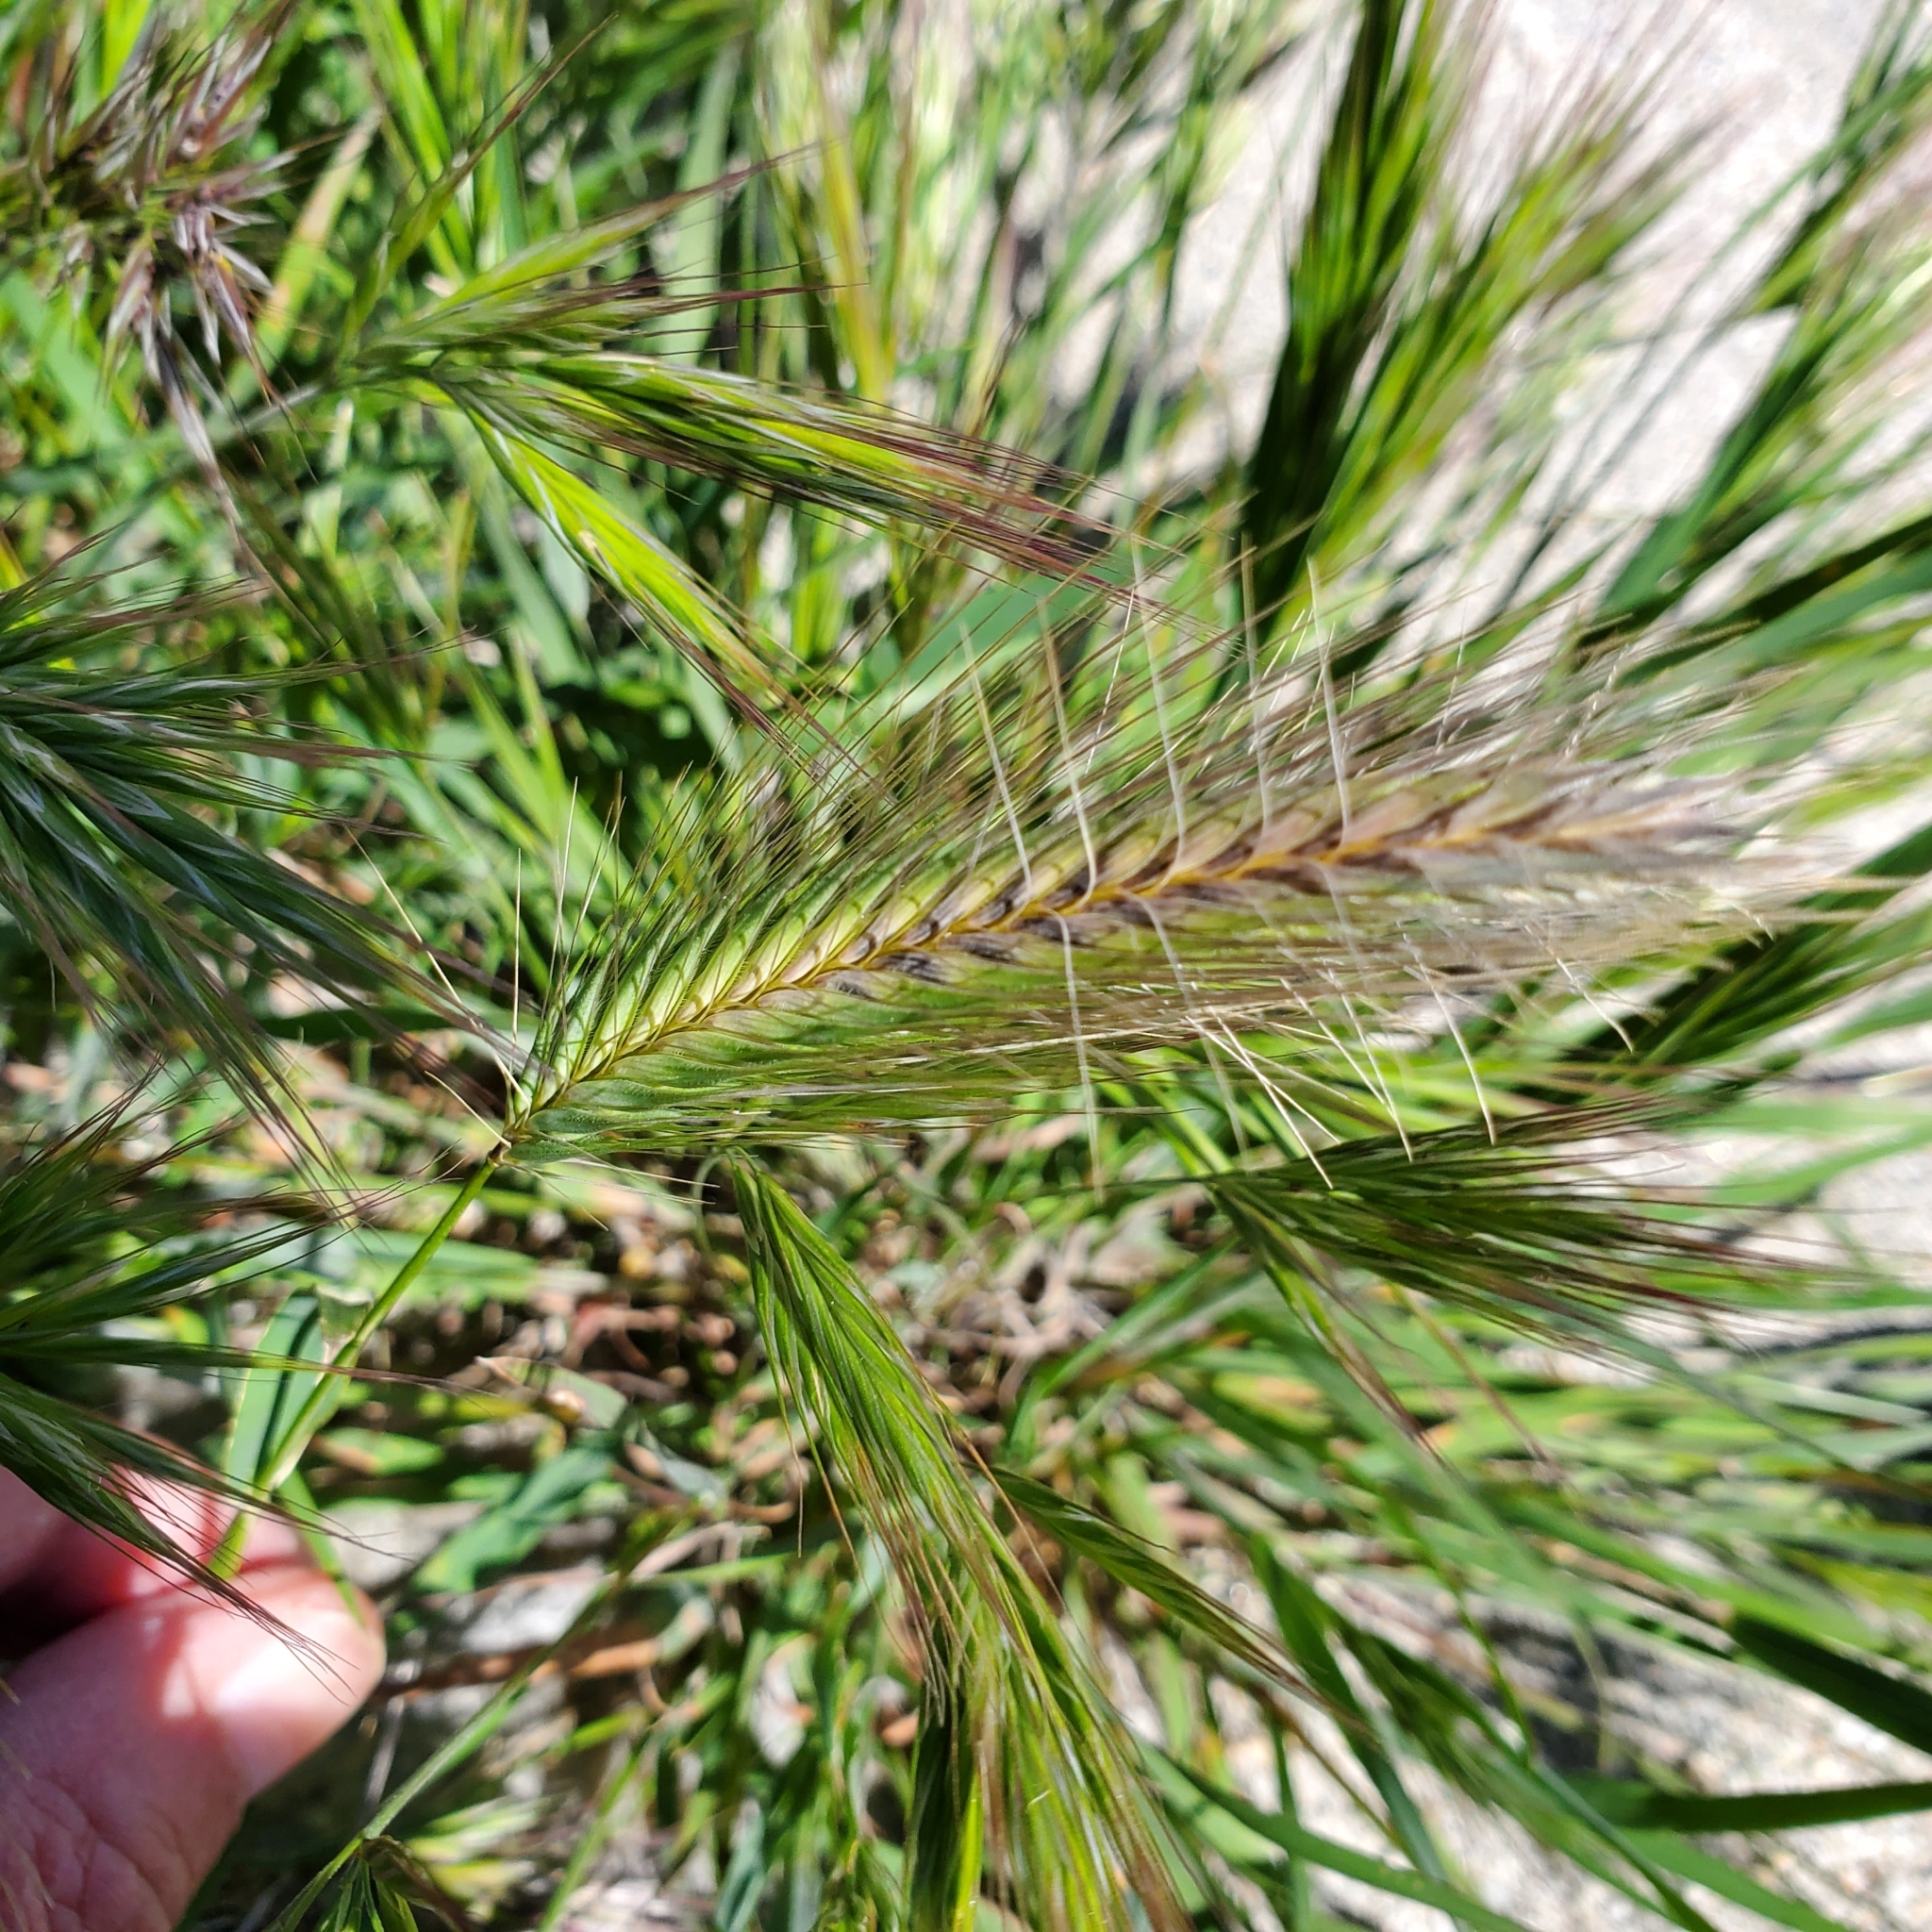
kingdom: Plantae
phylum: Tracheophyta
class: Liliopsida
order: Poales
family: Poaceae
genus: Hordeum
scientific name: Hordeum murinum
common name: Wall barley
